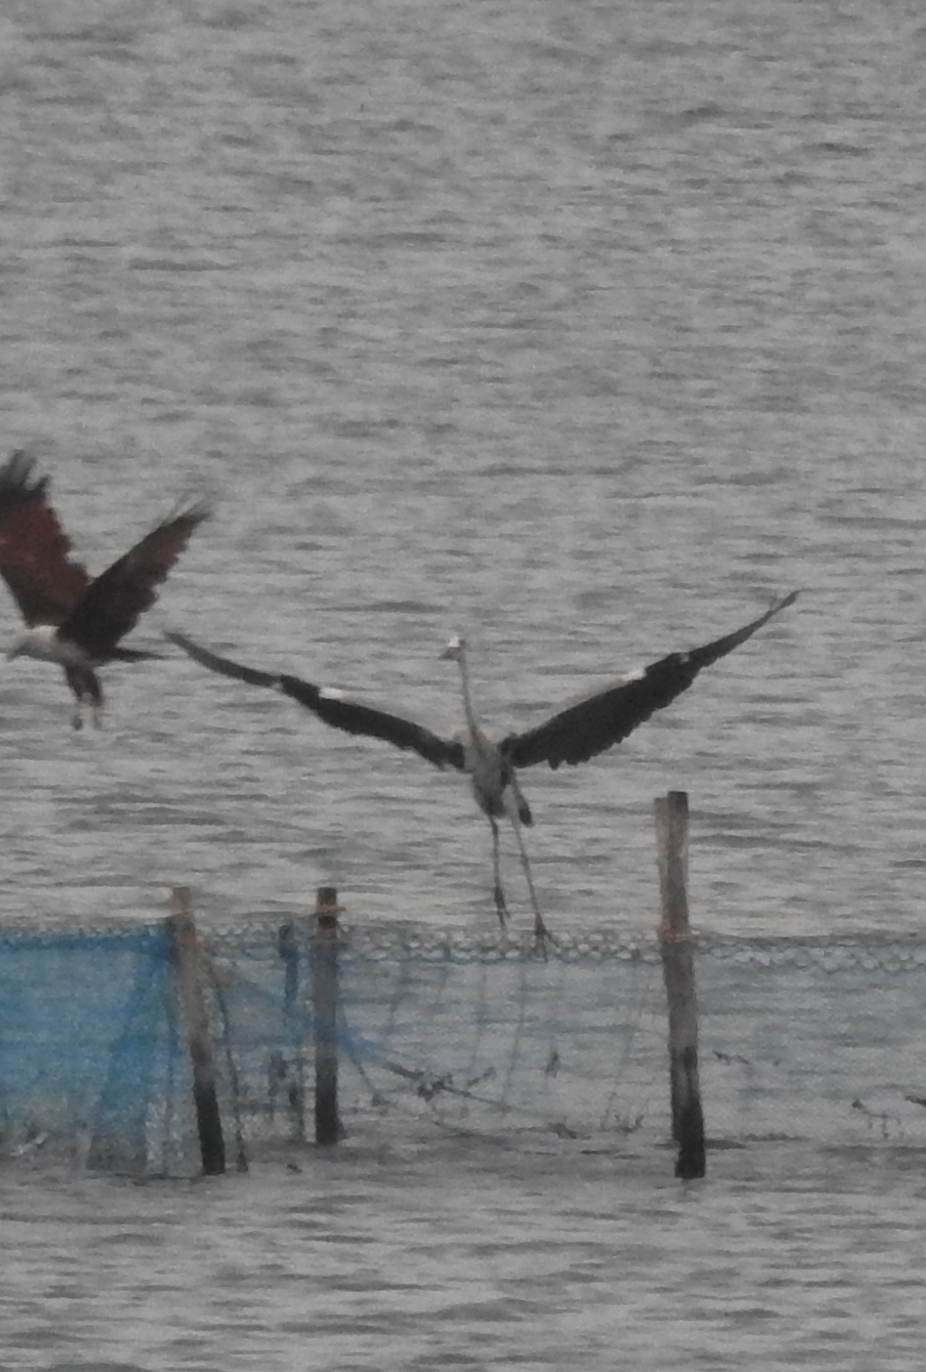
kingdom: Animalia
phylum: Chordata
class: Aves
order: Pelecaniformes
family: Ardeidae
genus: Ardea
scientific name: Ardea cinerea
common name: Grey heron
